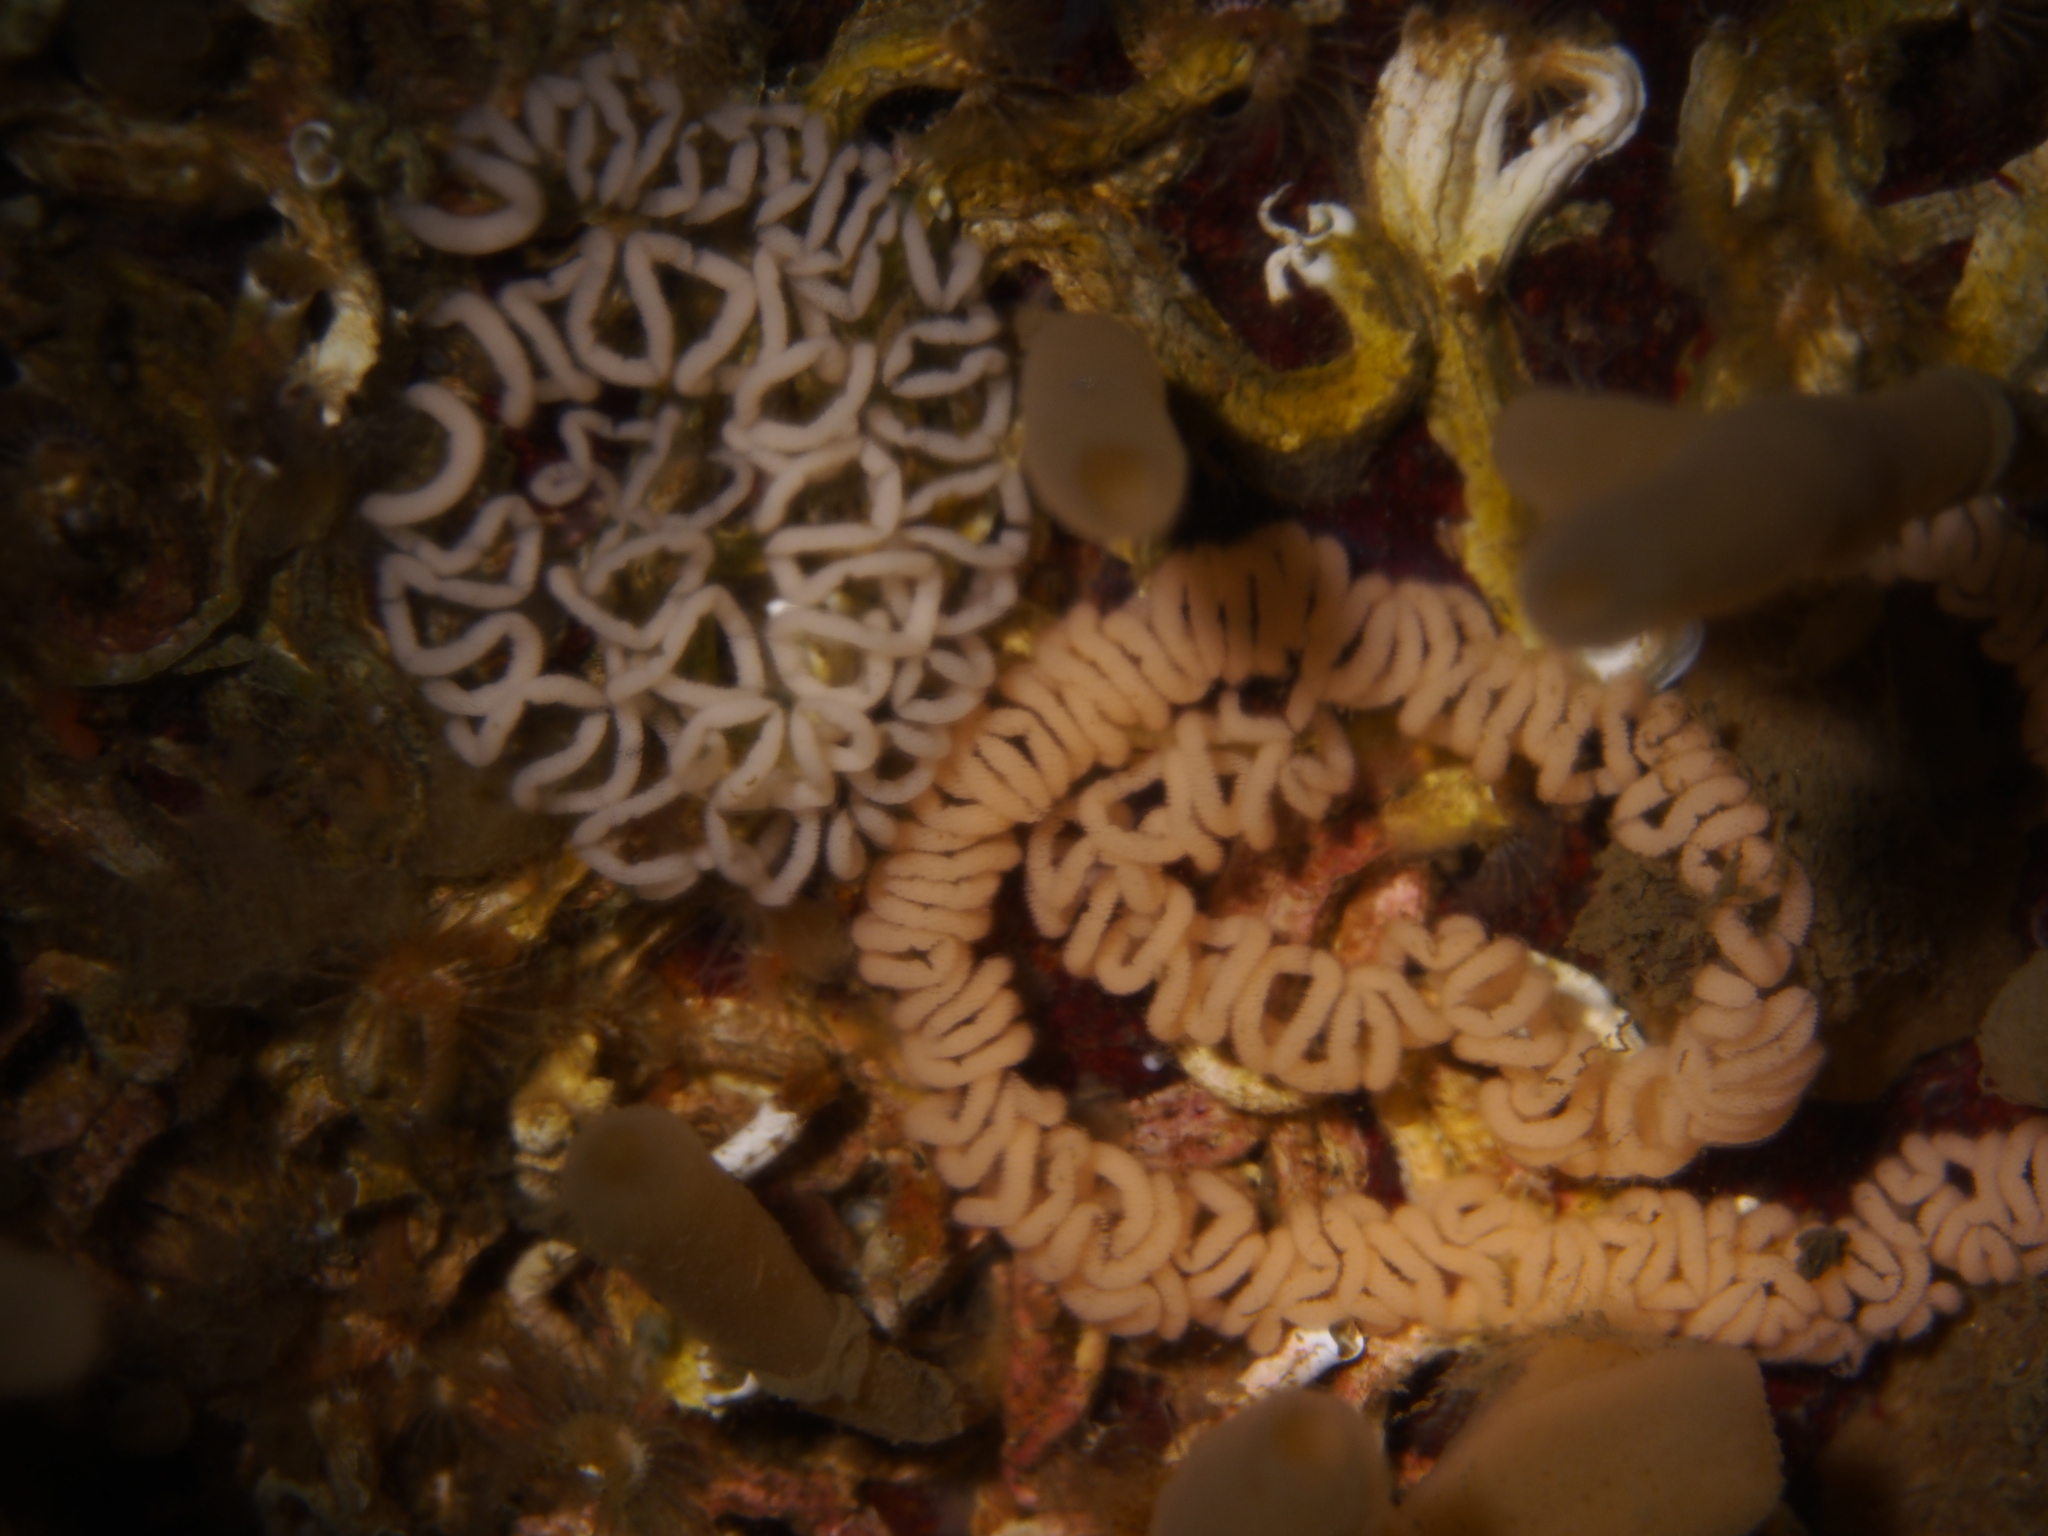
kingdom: Animalia
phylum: Mollusca
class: Gastropoda
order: Nudibranchia
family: Aeolidiidae
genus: Aeolidia
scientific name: Aeolidia papillosa
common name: Common grey sea slug
